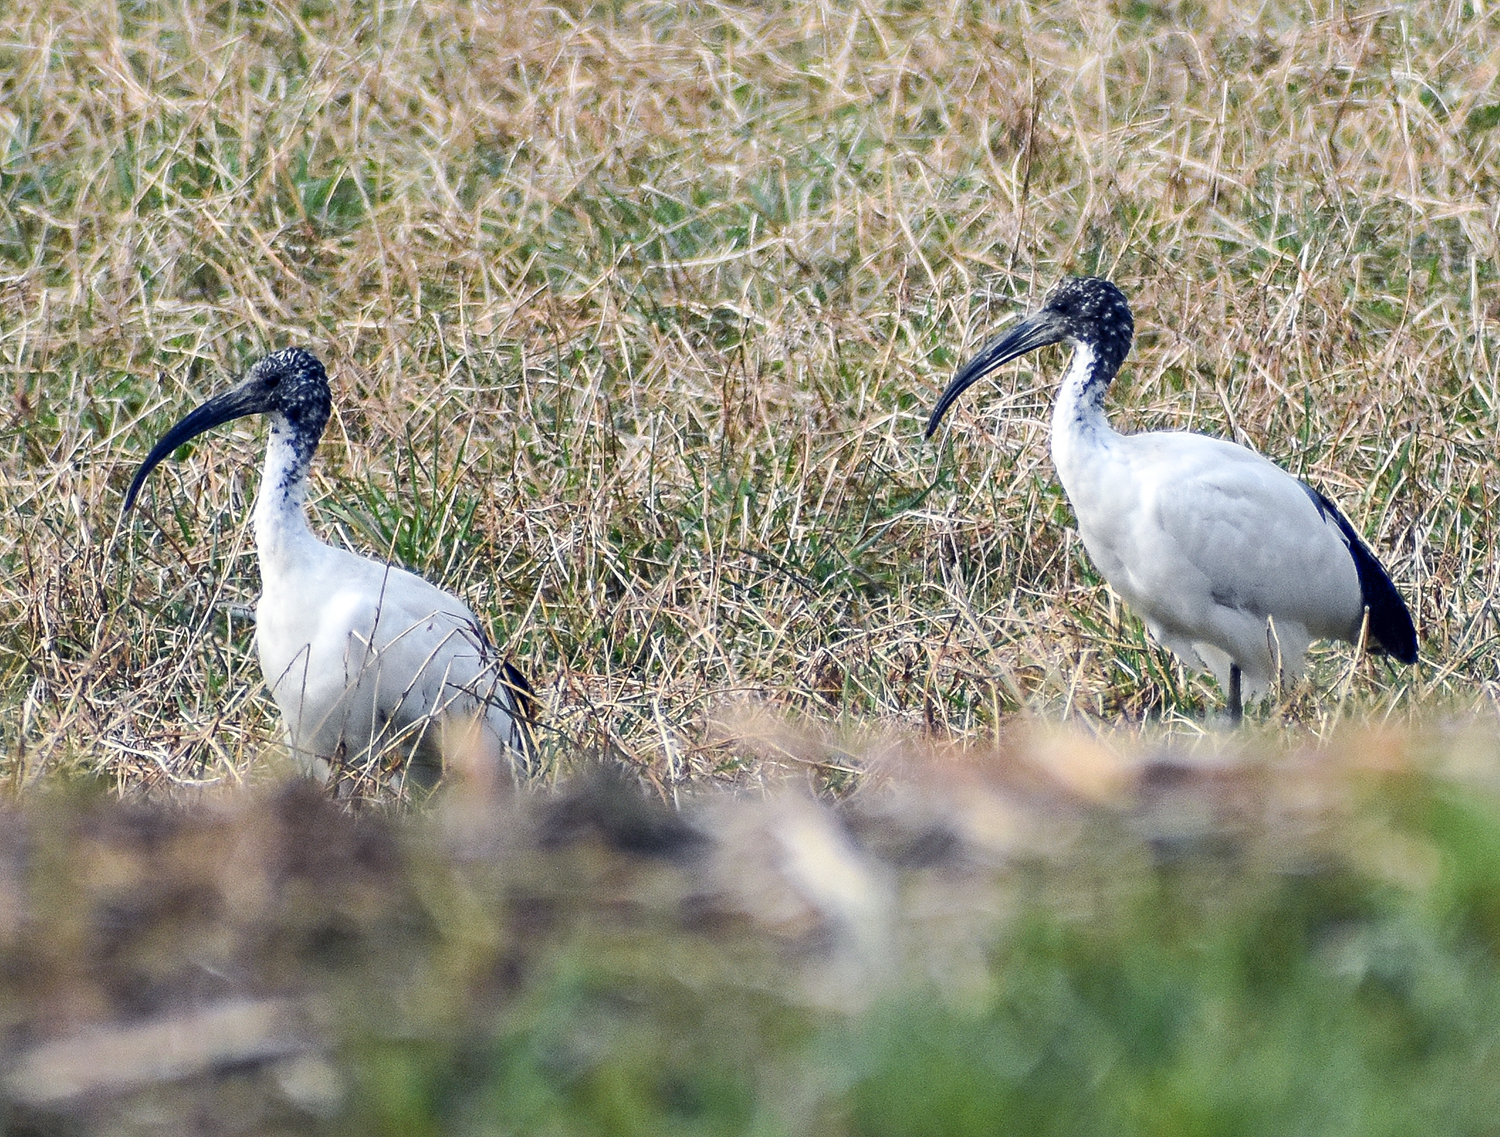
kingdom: Animalia
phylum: Chordata
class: Aves
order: Pelecaniformes
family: Threskiornithidae
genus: Threskiornis
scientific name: Threskiornis aethiopicus
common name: Sacred ibis
